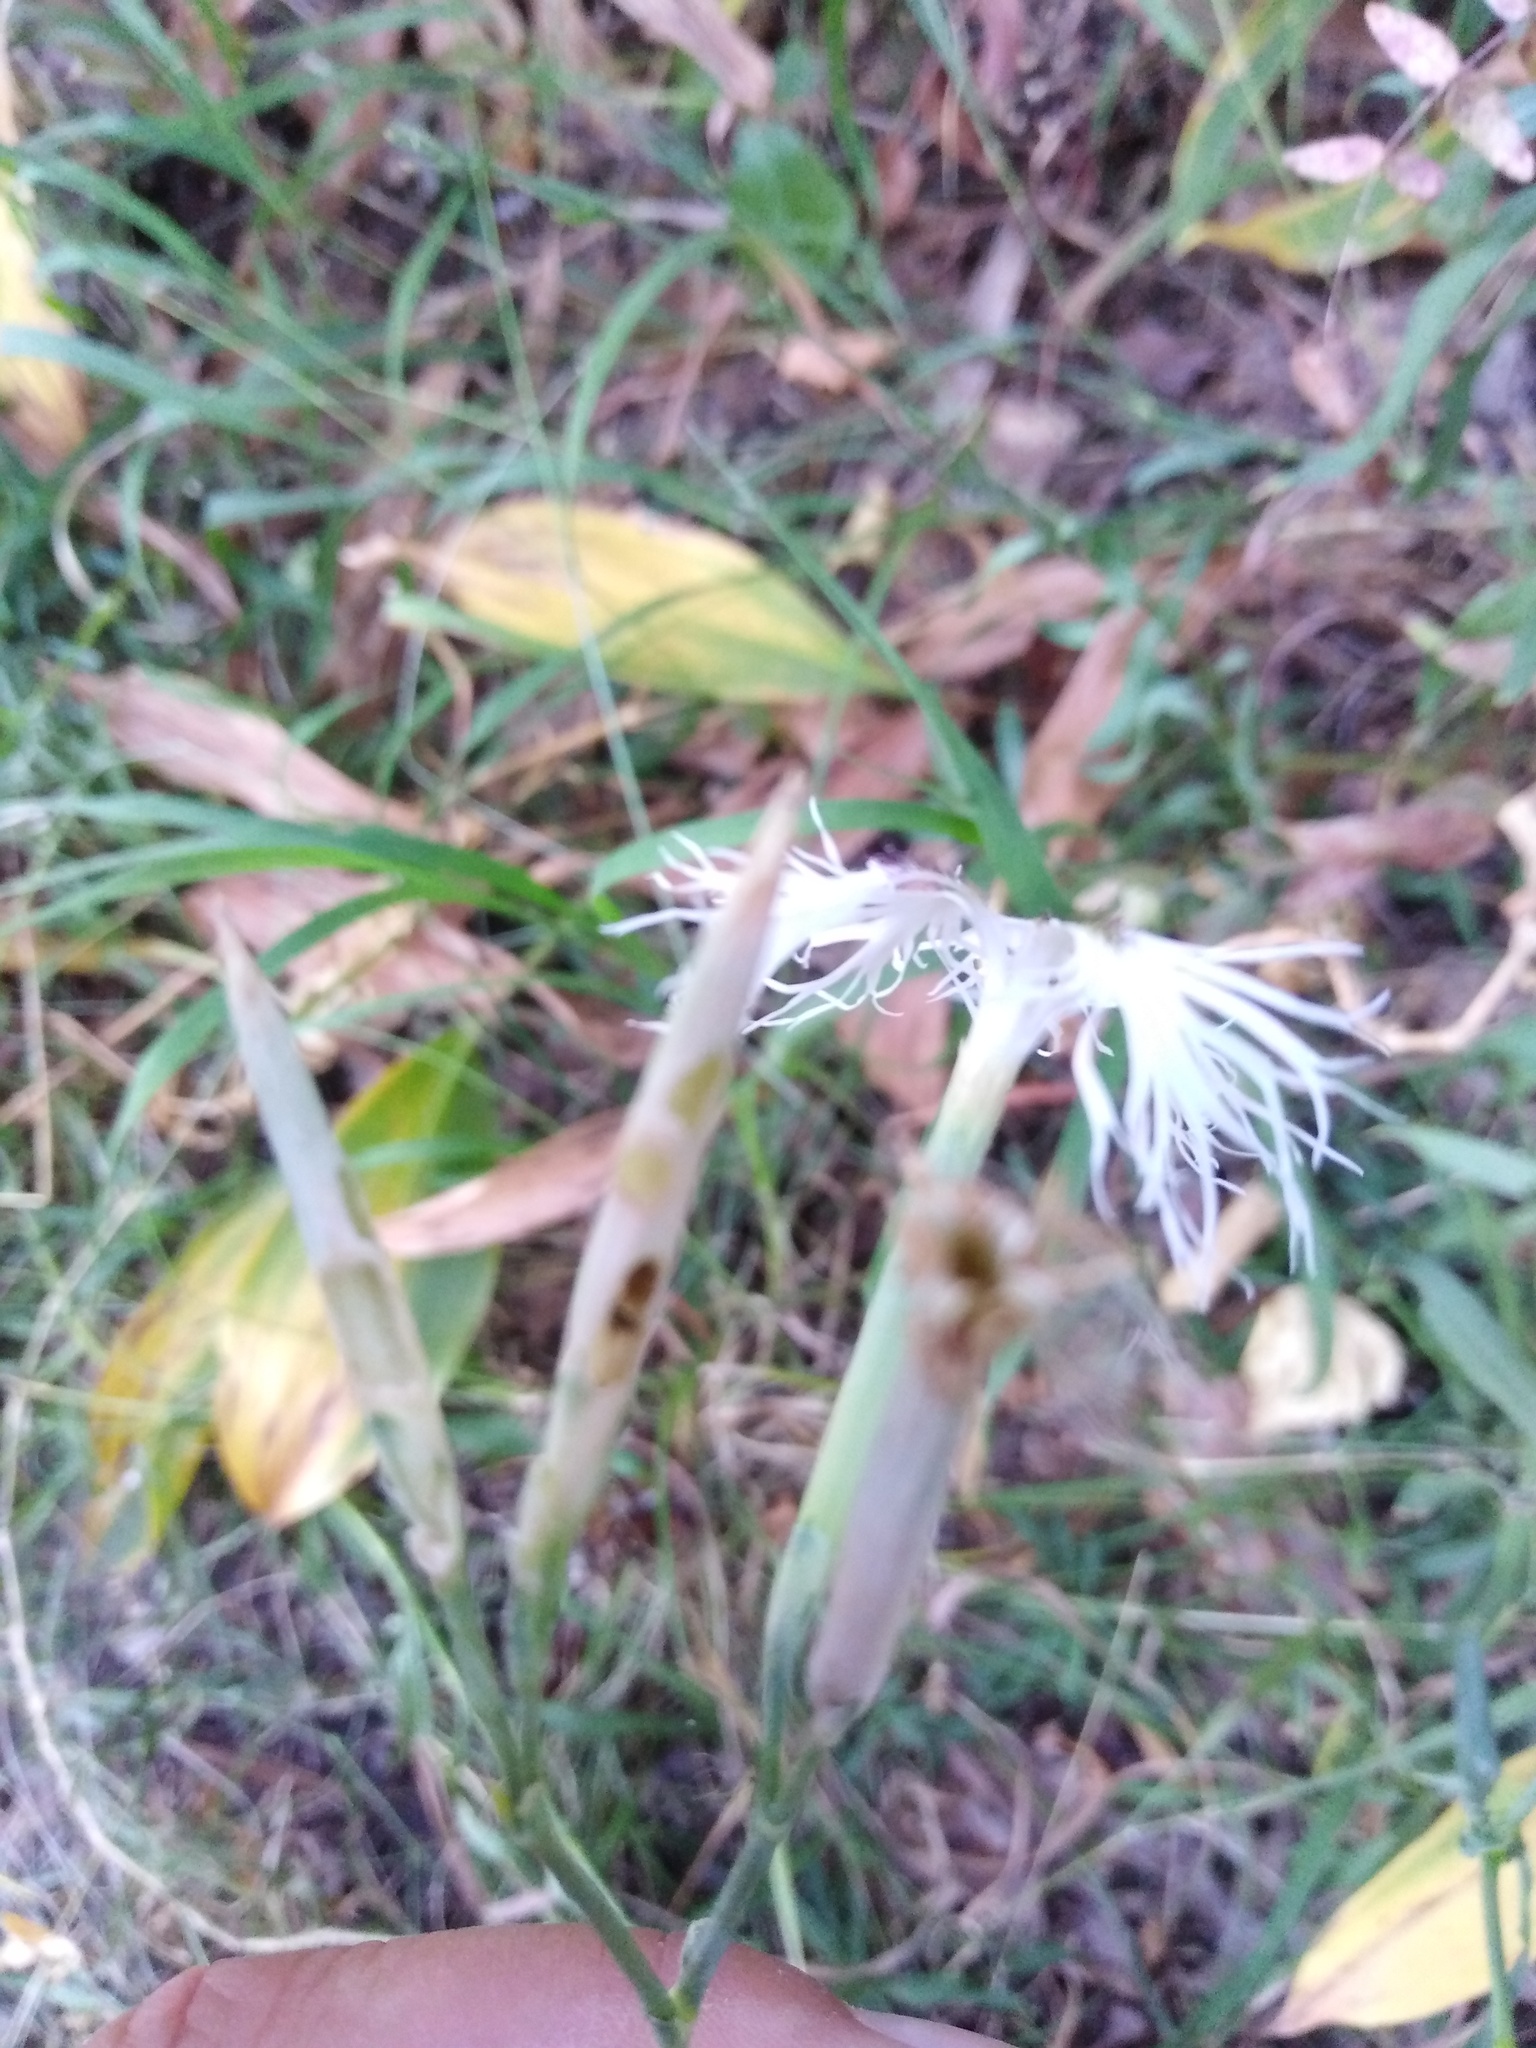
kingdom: Plantae
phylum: Tracheophyta
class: Magnoliopsida
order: Caryophyllales
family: Caryophyllaceae
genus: Dianthus
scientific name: Dianthus superbus
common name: Fringed pink
